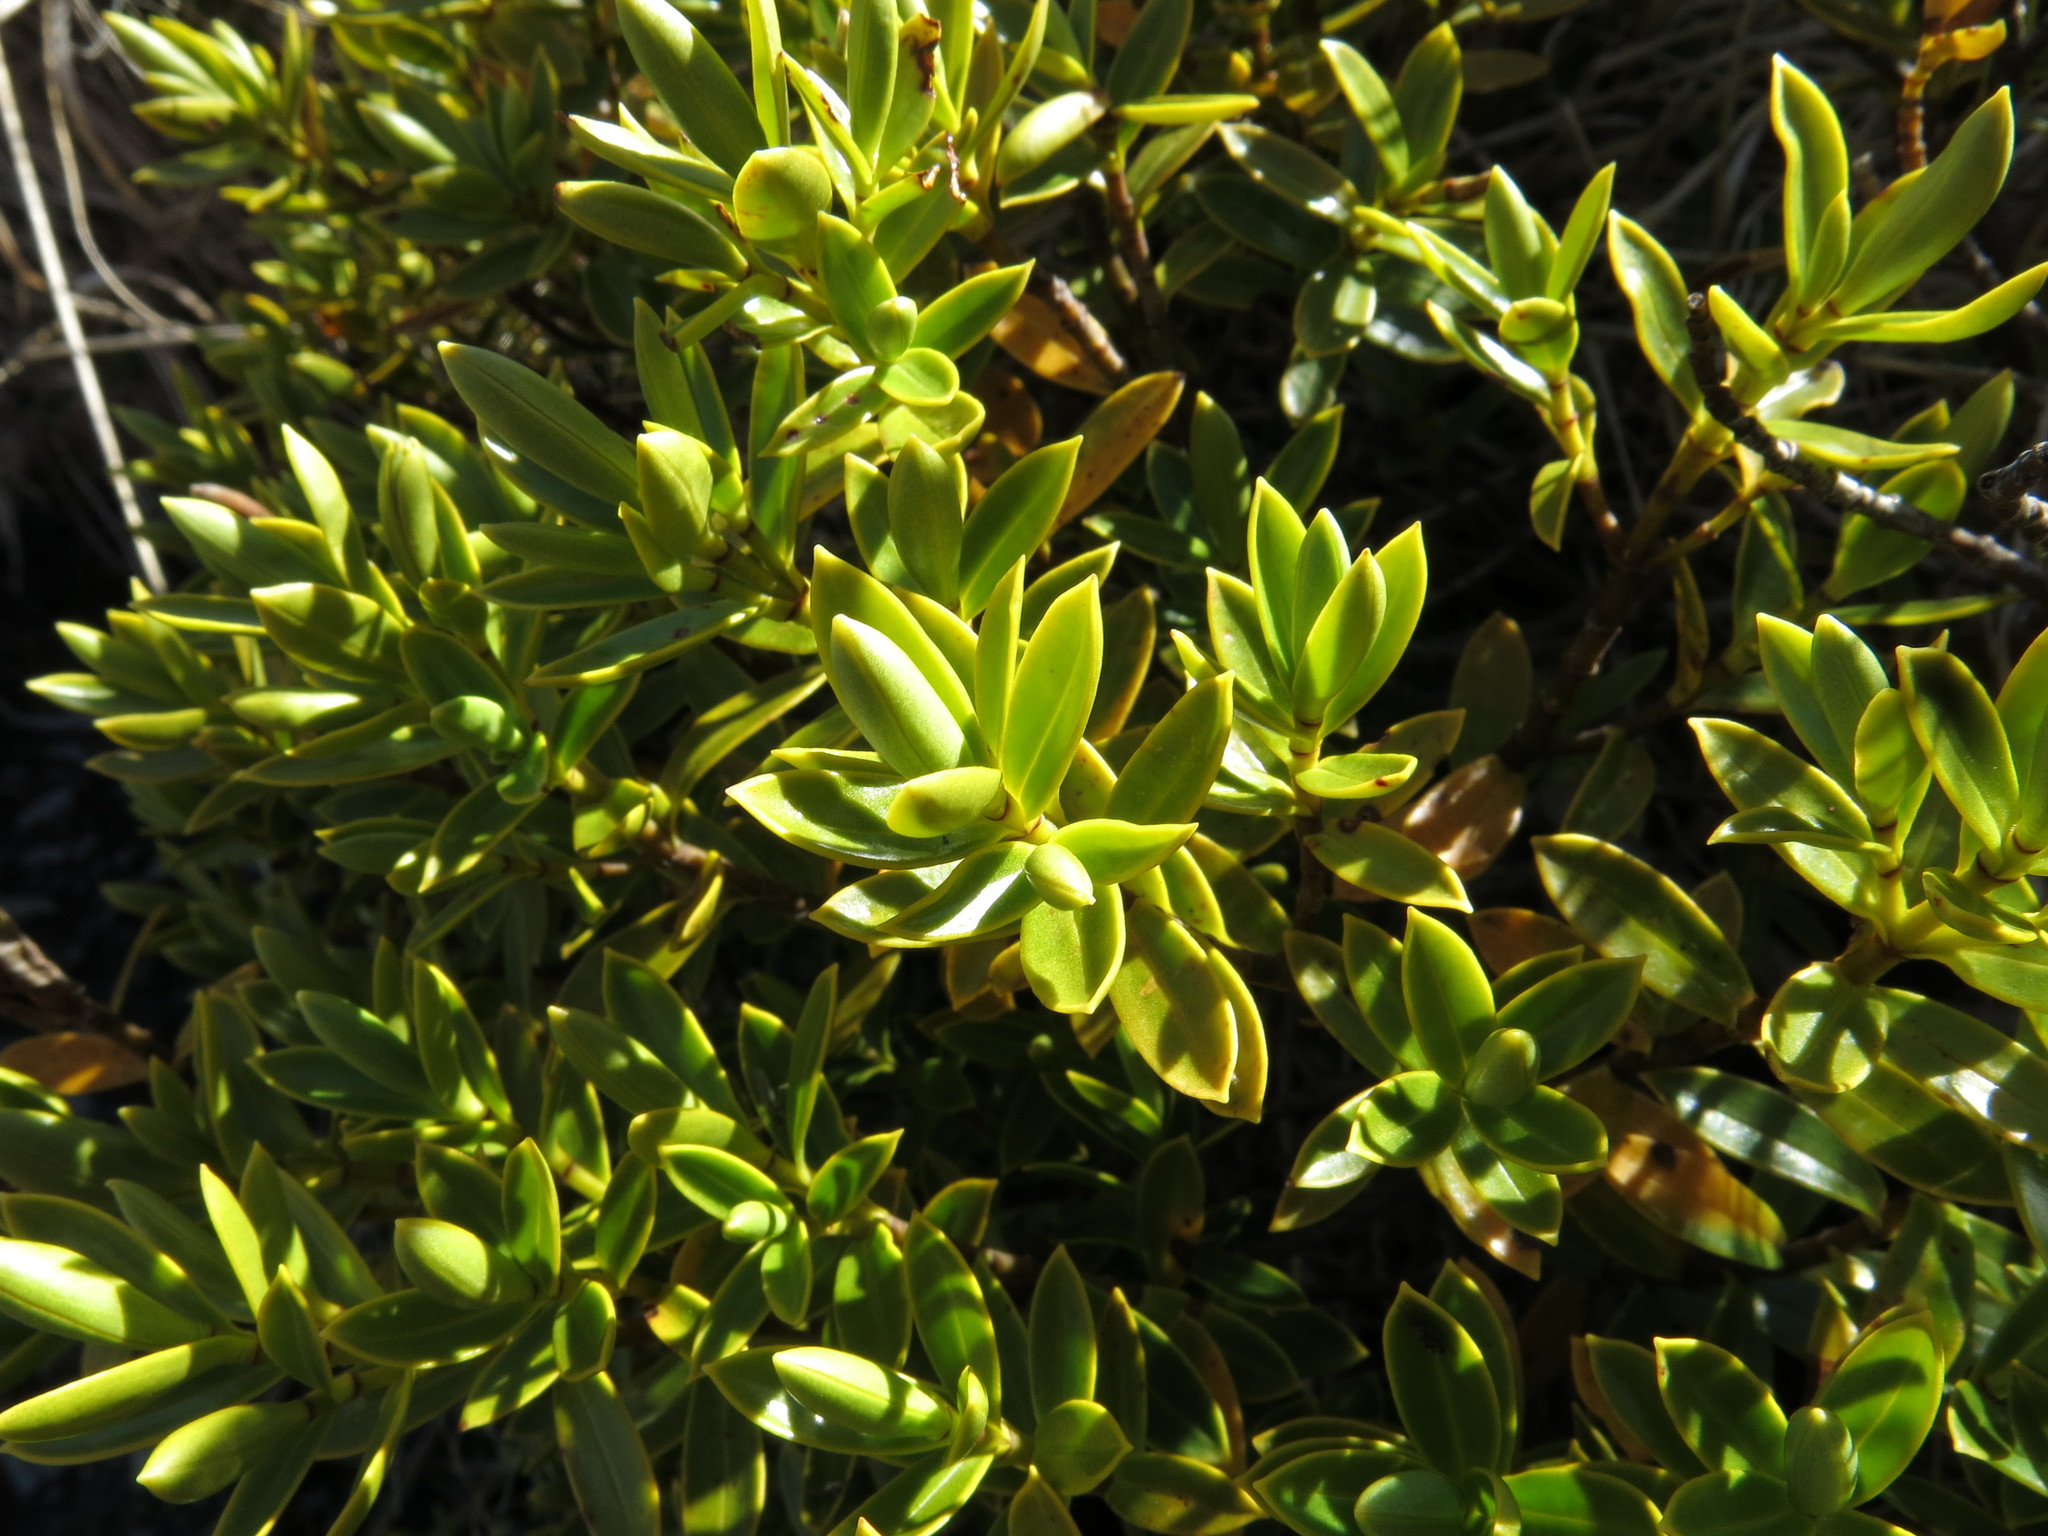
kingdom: Plantae
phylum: Tracheophyta
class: Magnoliopsida
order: Lamiales
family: Plantaginaceae
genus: Veronica
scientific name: Veronica brachysiphon
